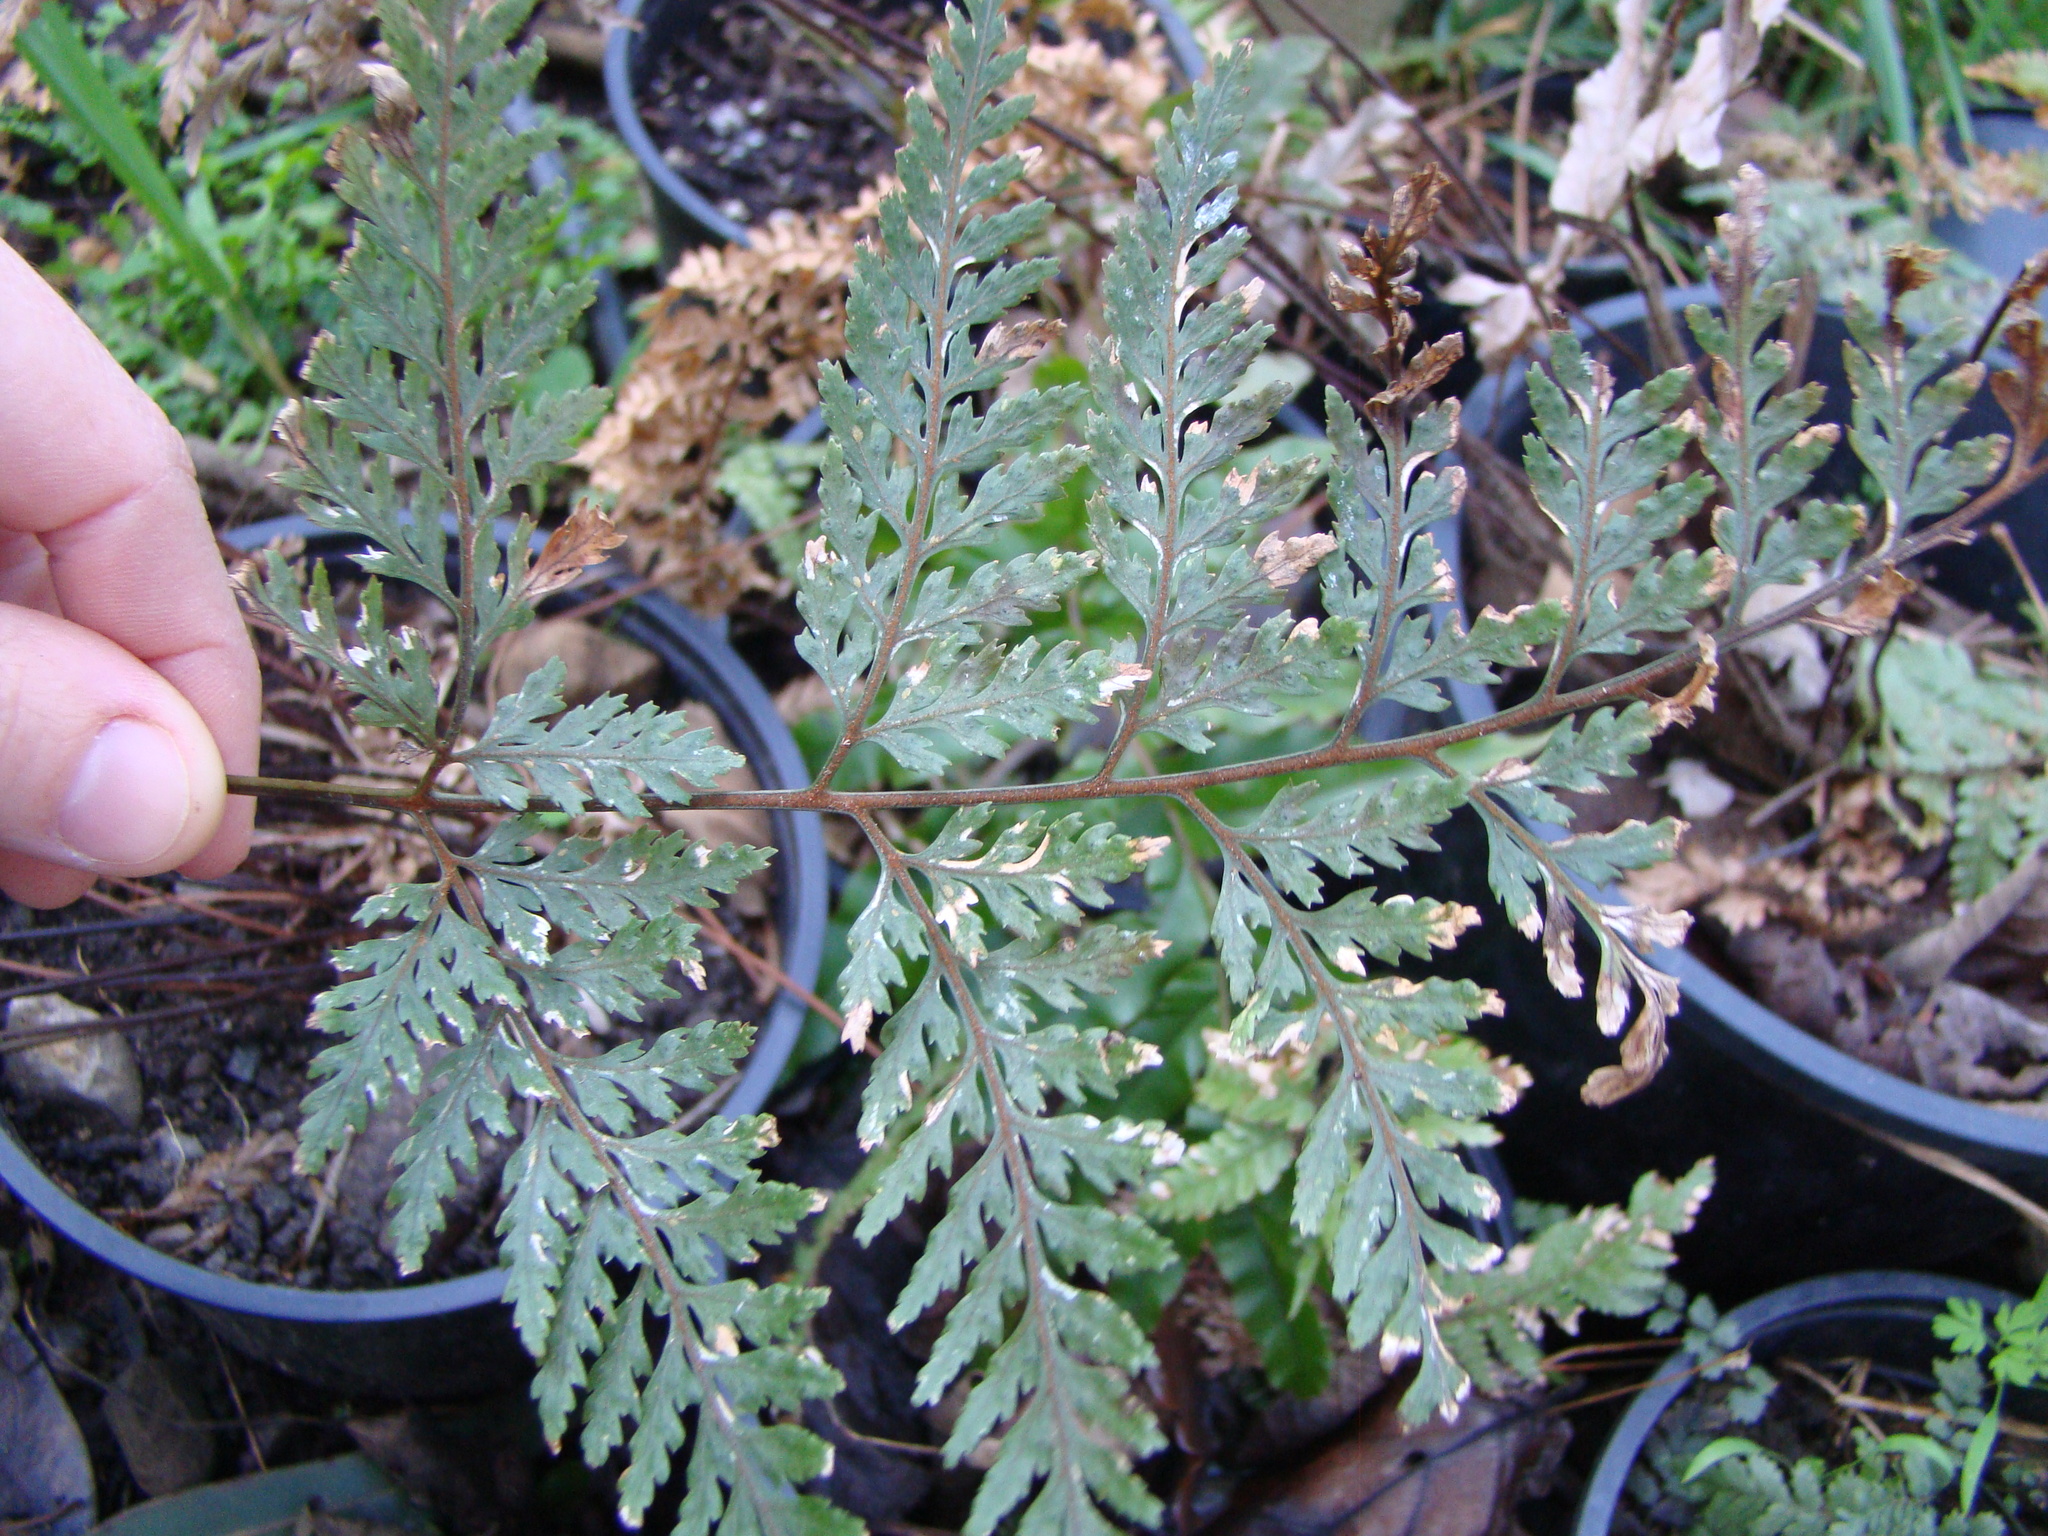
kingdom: Plantae
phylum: Tracheophyta
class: Polypodiopsida
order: Polypodiales
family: Dryopteridaceae
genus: Parapolystichum
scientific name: Parapolystichum glabellum
